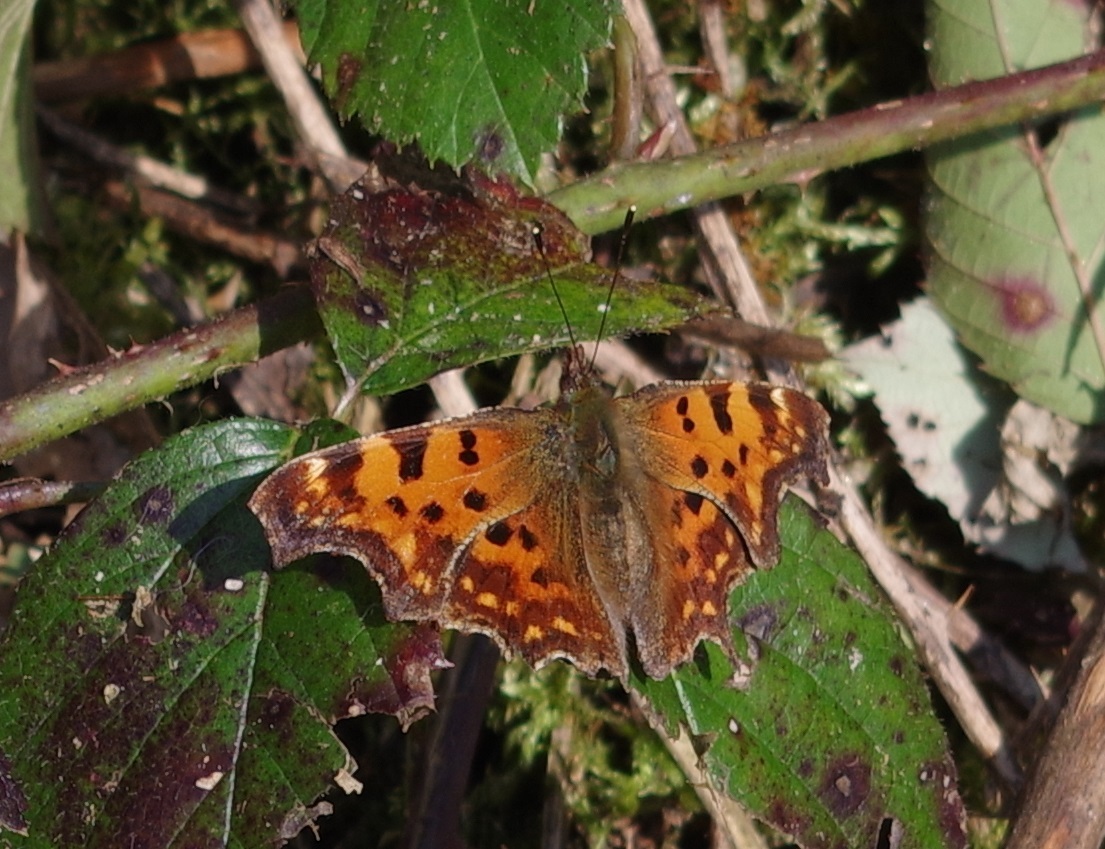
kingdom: Animalia
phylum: Arthropoda
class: Insecta
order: Lepidoptera
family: Nymphalidae
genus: Polygonia
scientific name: Polygonia c-album
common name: Comma
